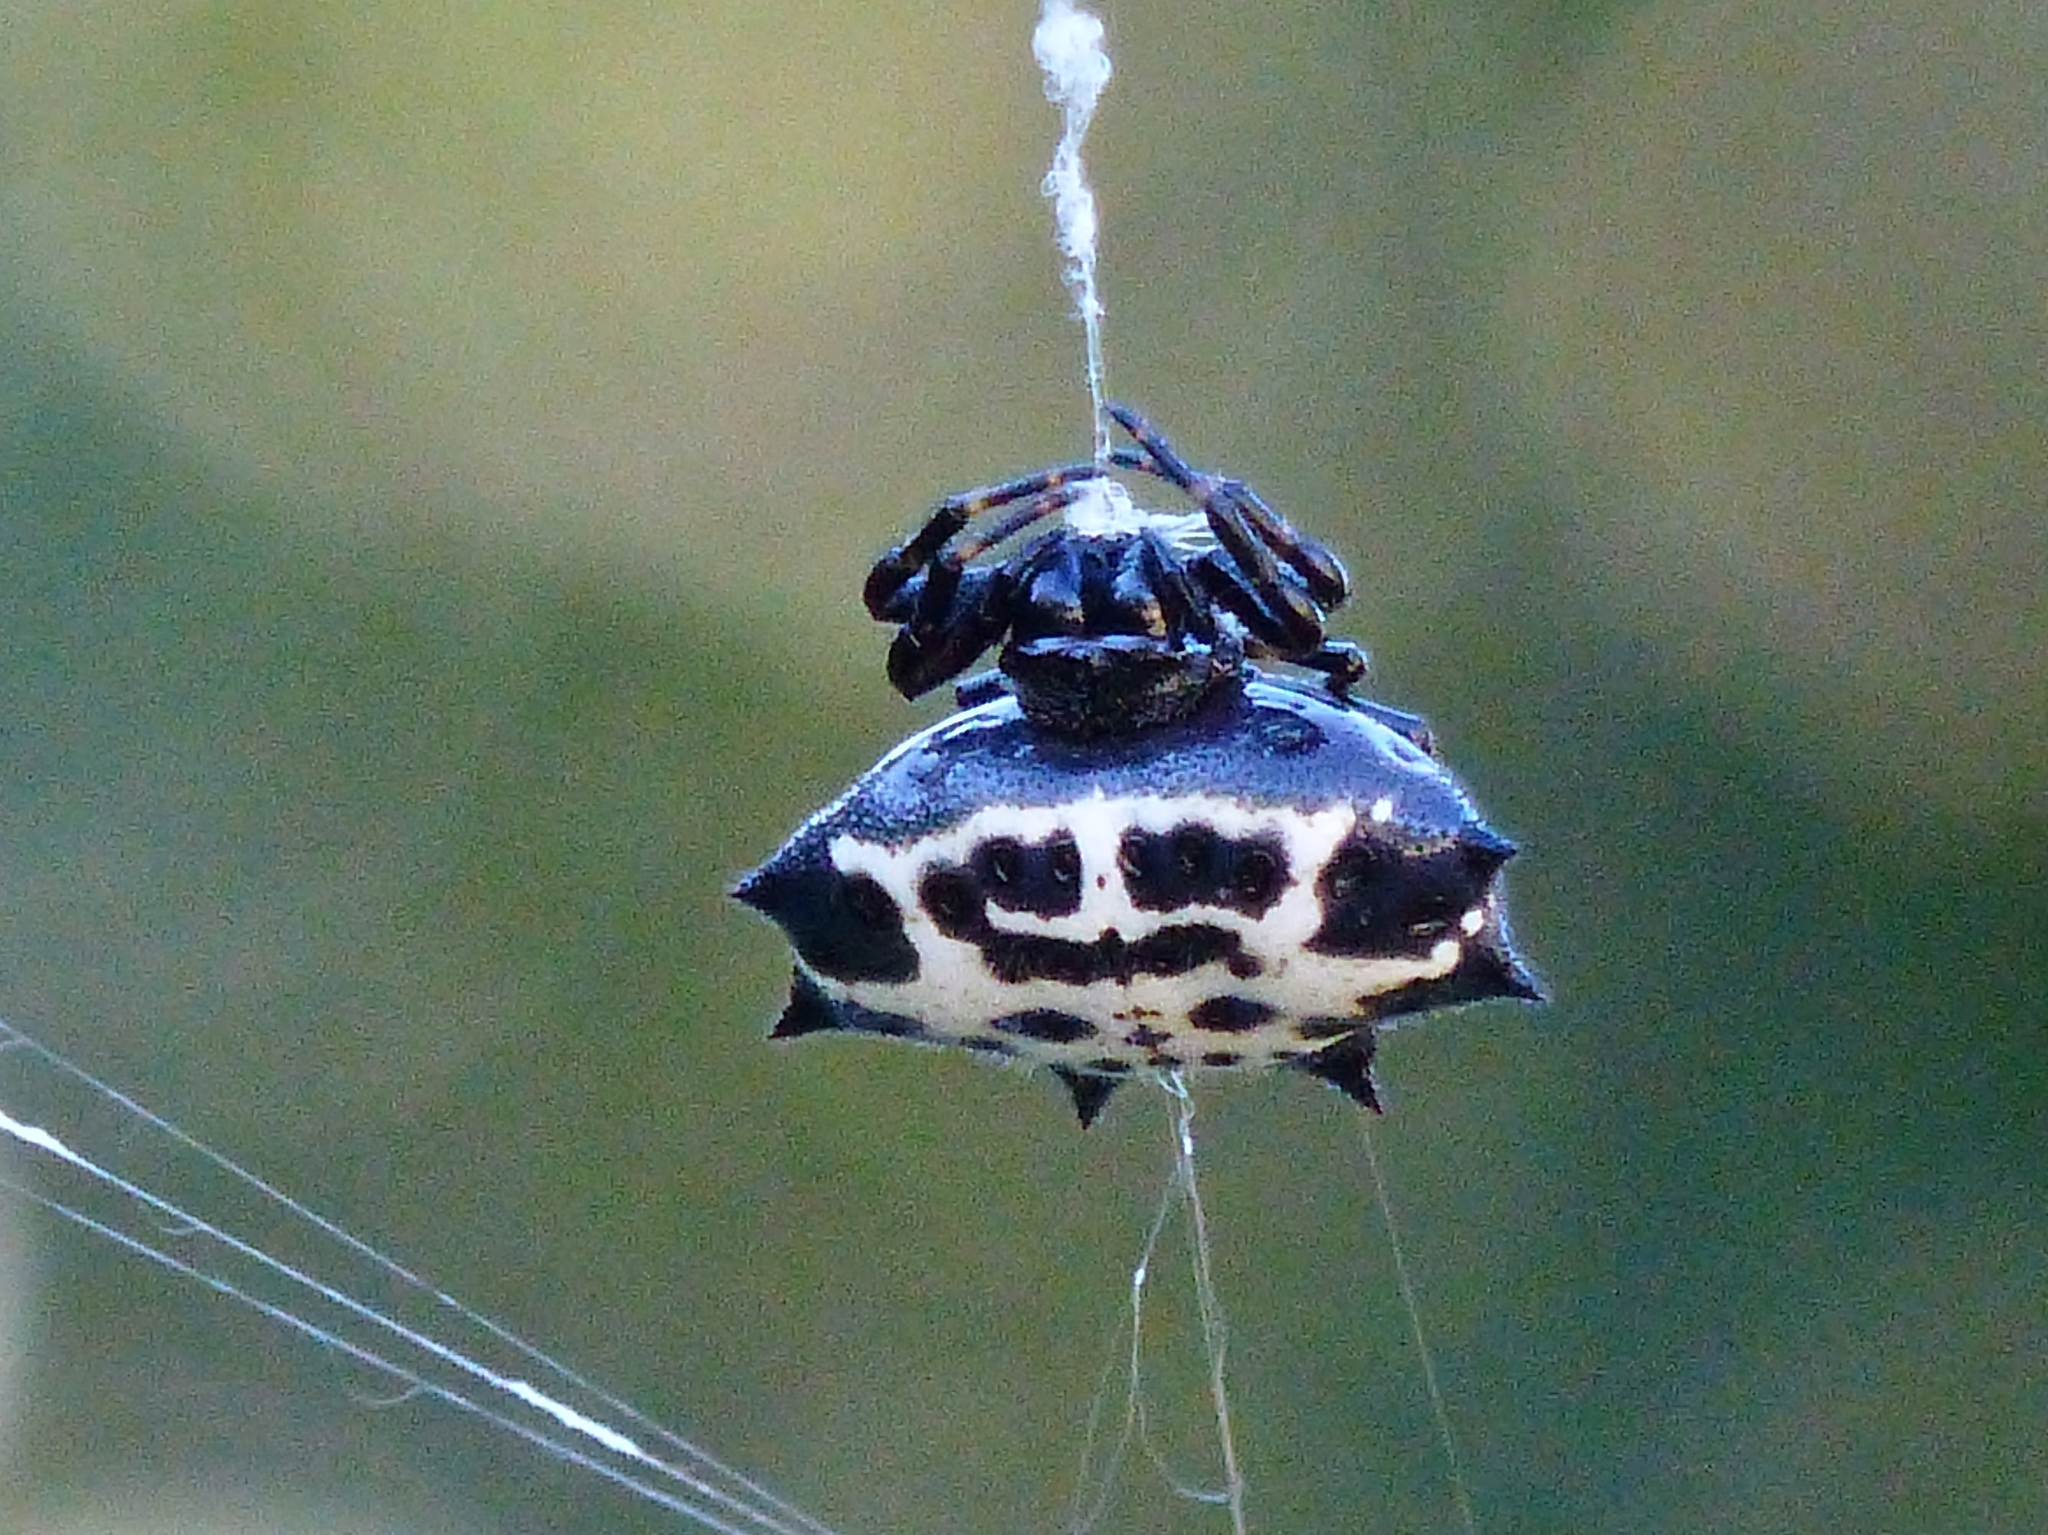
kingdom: Animalia
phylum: Arthropoda
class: Arachnida
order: Araneae
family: Araneidae
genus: Gasteracantha
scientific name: Gasteracantha cancriformis
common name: Orb weavers
